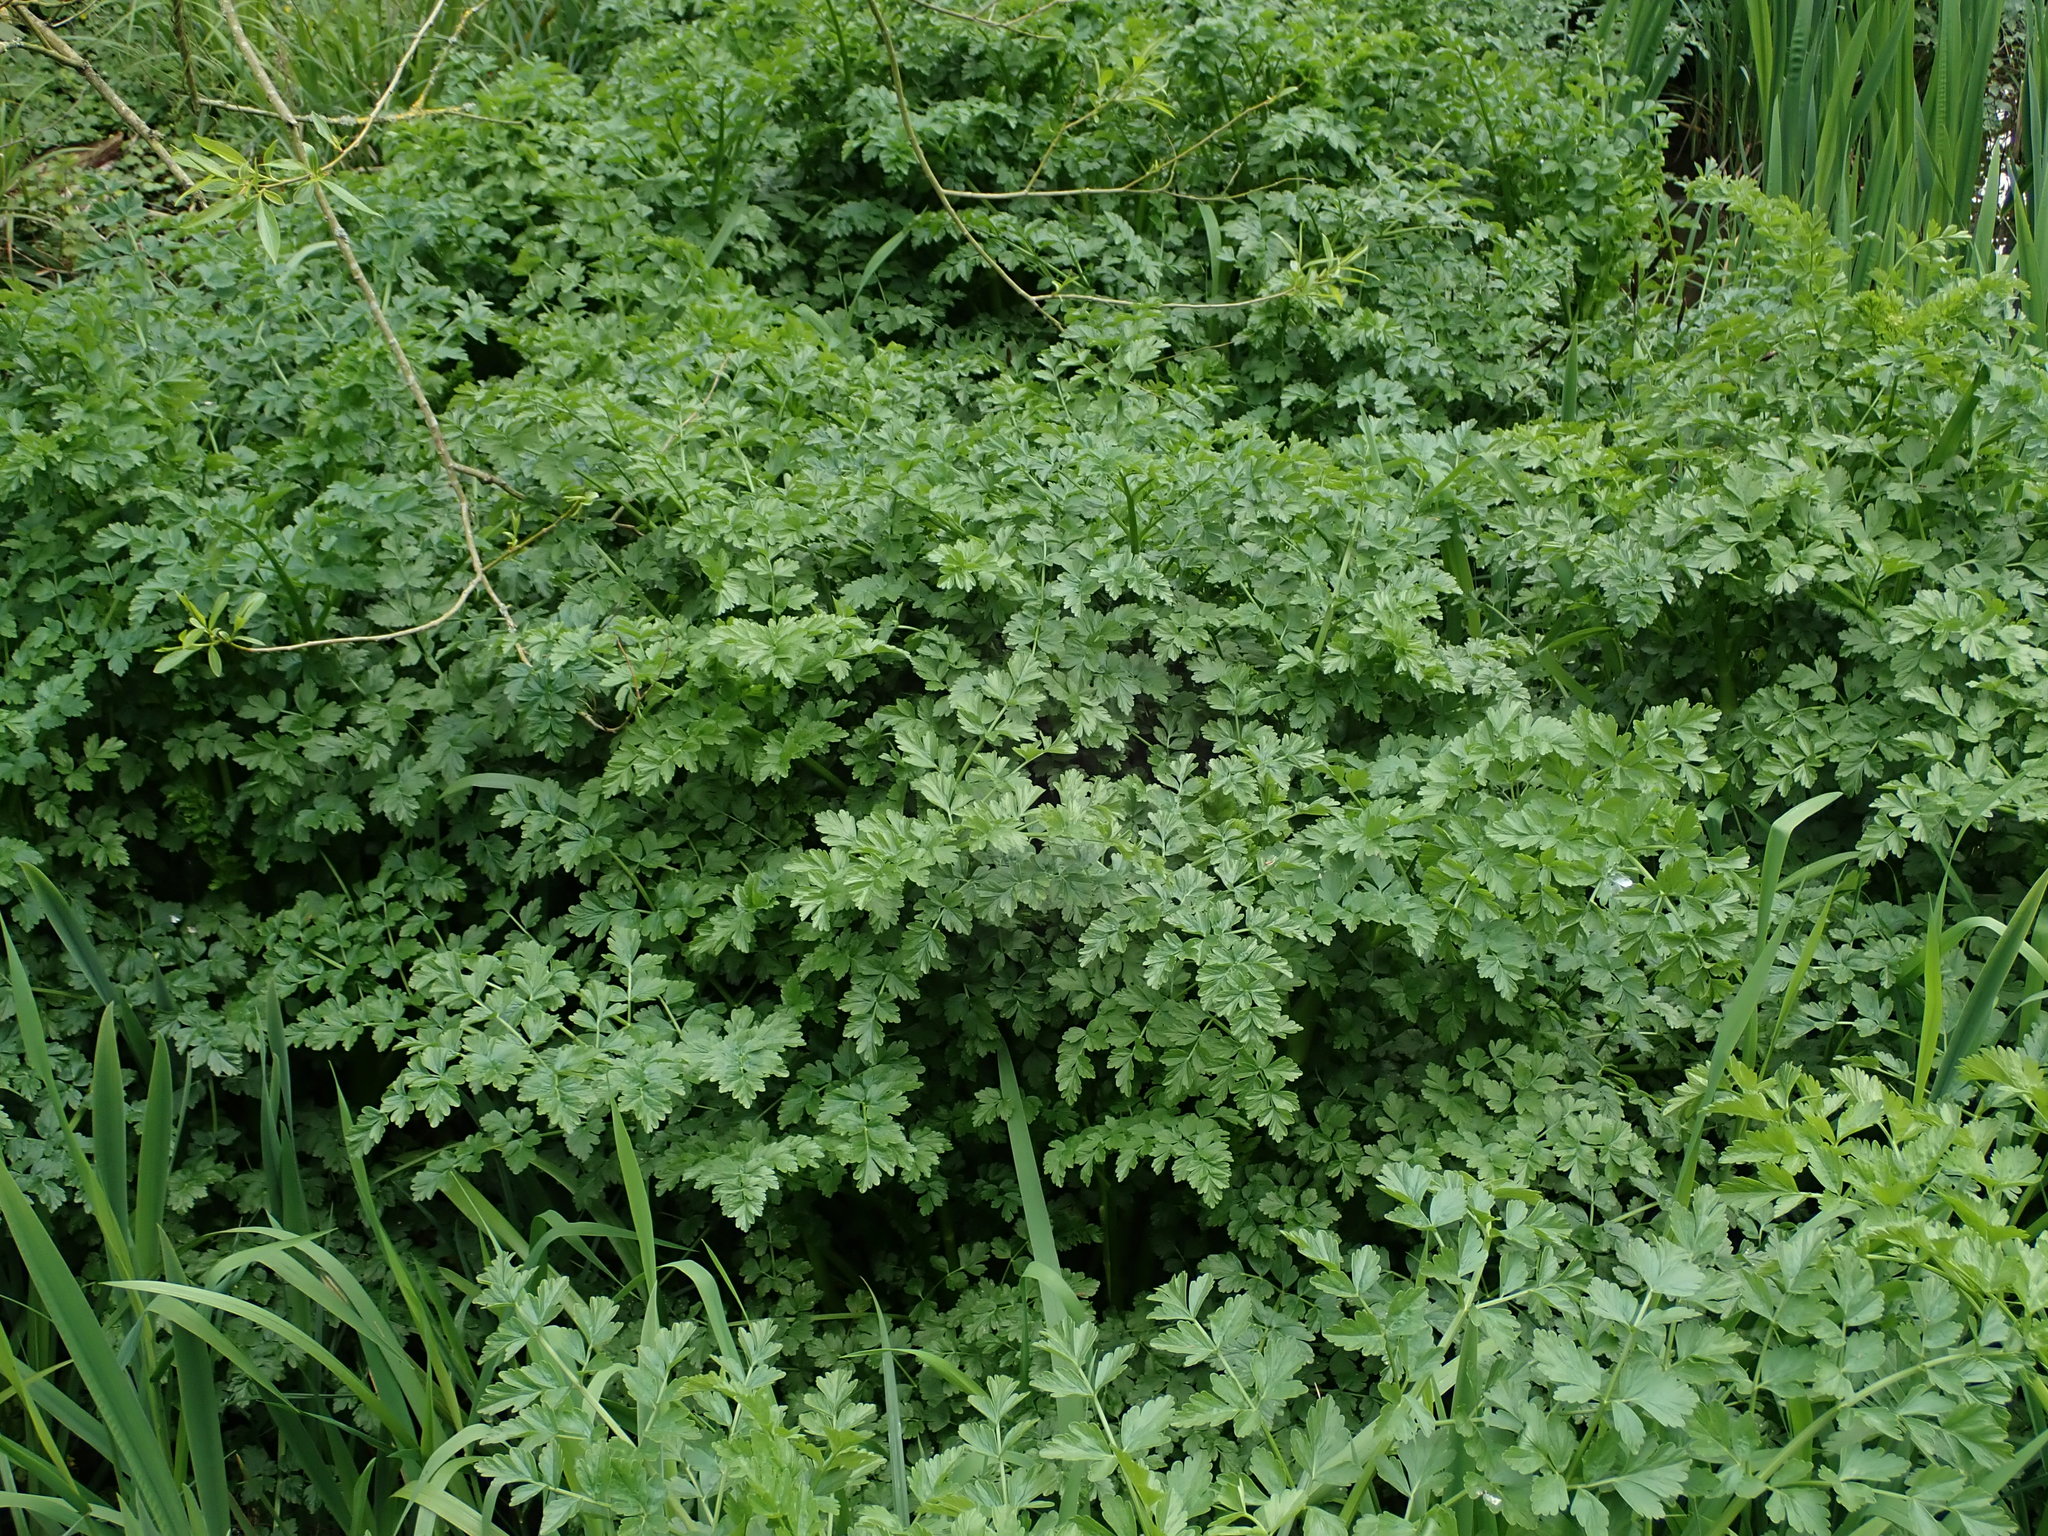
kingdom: Plantae
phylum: Tracheophyta
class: Magnoliopsida
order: Apiales
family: Apiaceae
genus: Oenanthe
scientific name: Oenanthe crocata
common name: Hemlock water-dropwort
